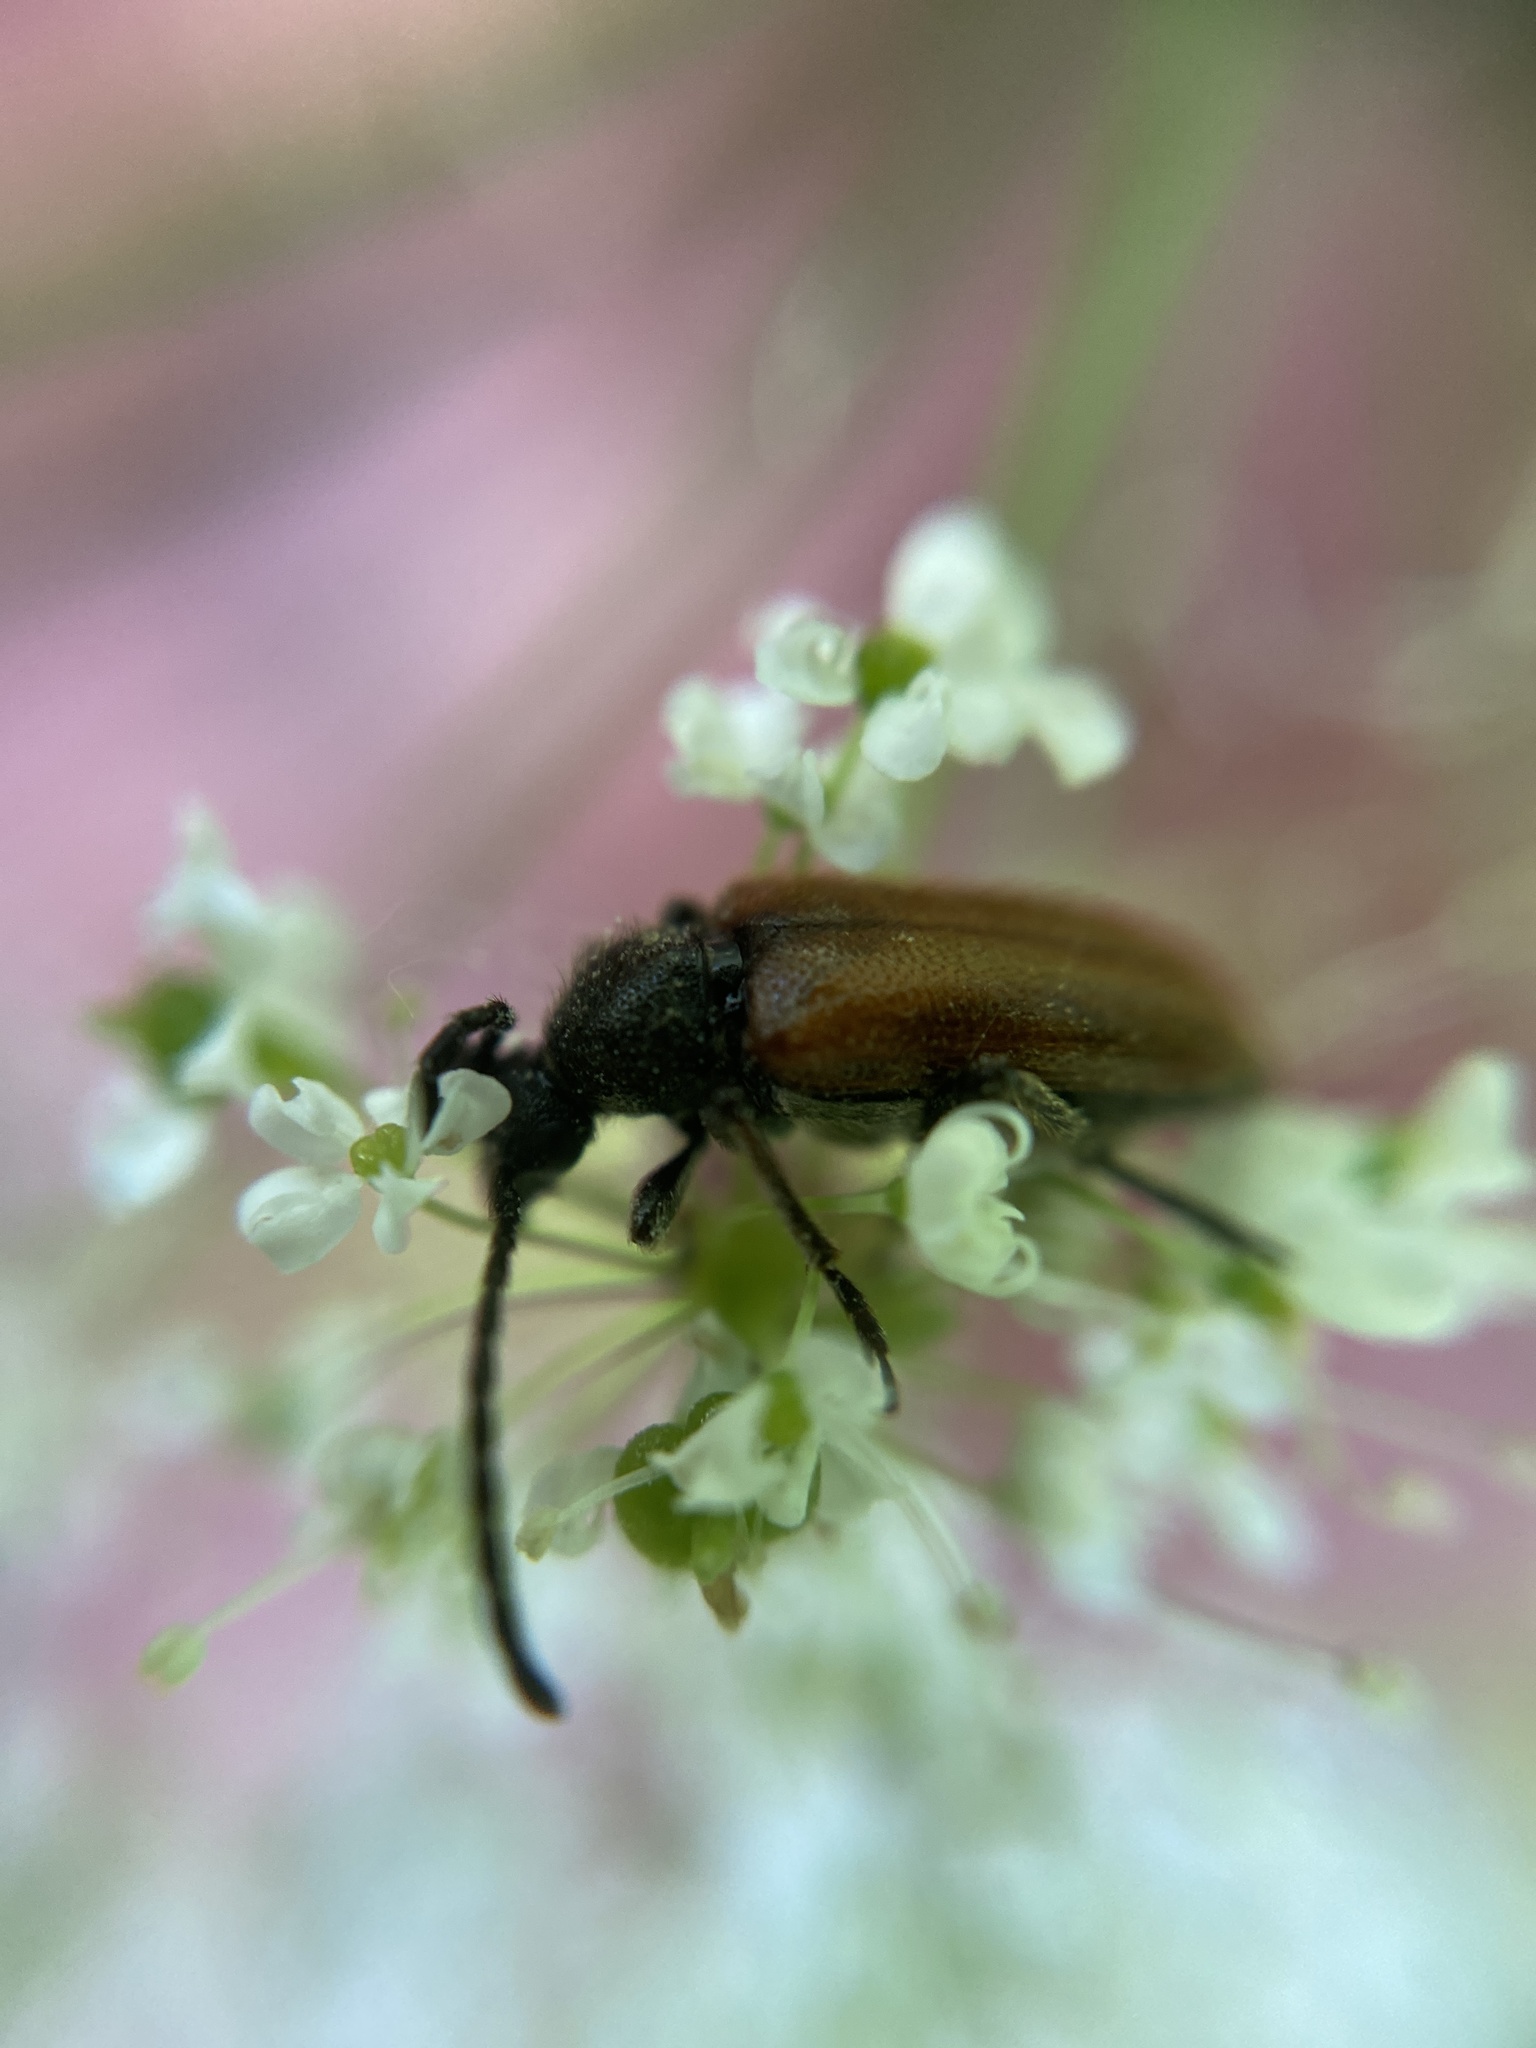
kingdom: Animalia
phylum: Arthropoda
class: Insecta
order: Coleoptera
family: Cerambycidae
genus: Pseudovadonia
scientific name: Pseudovadonia livida
